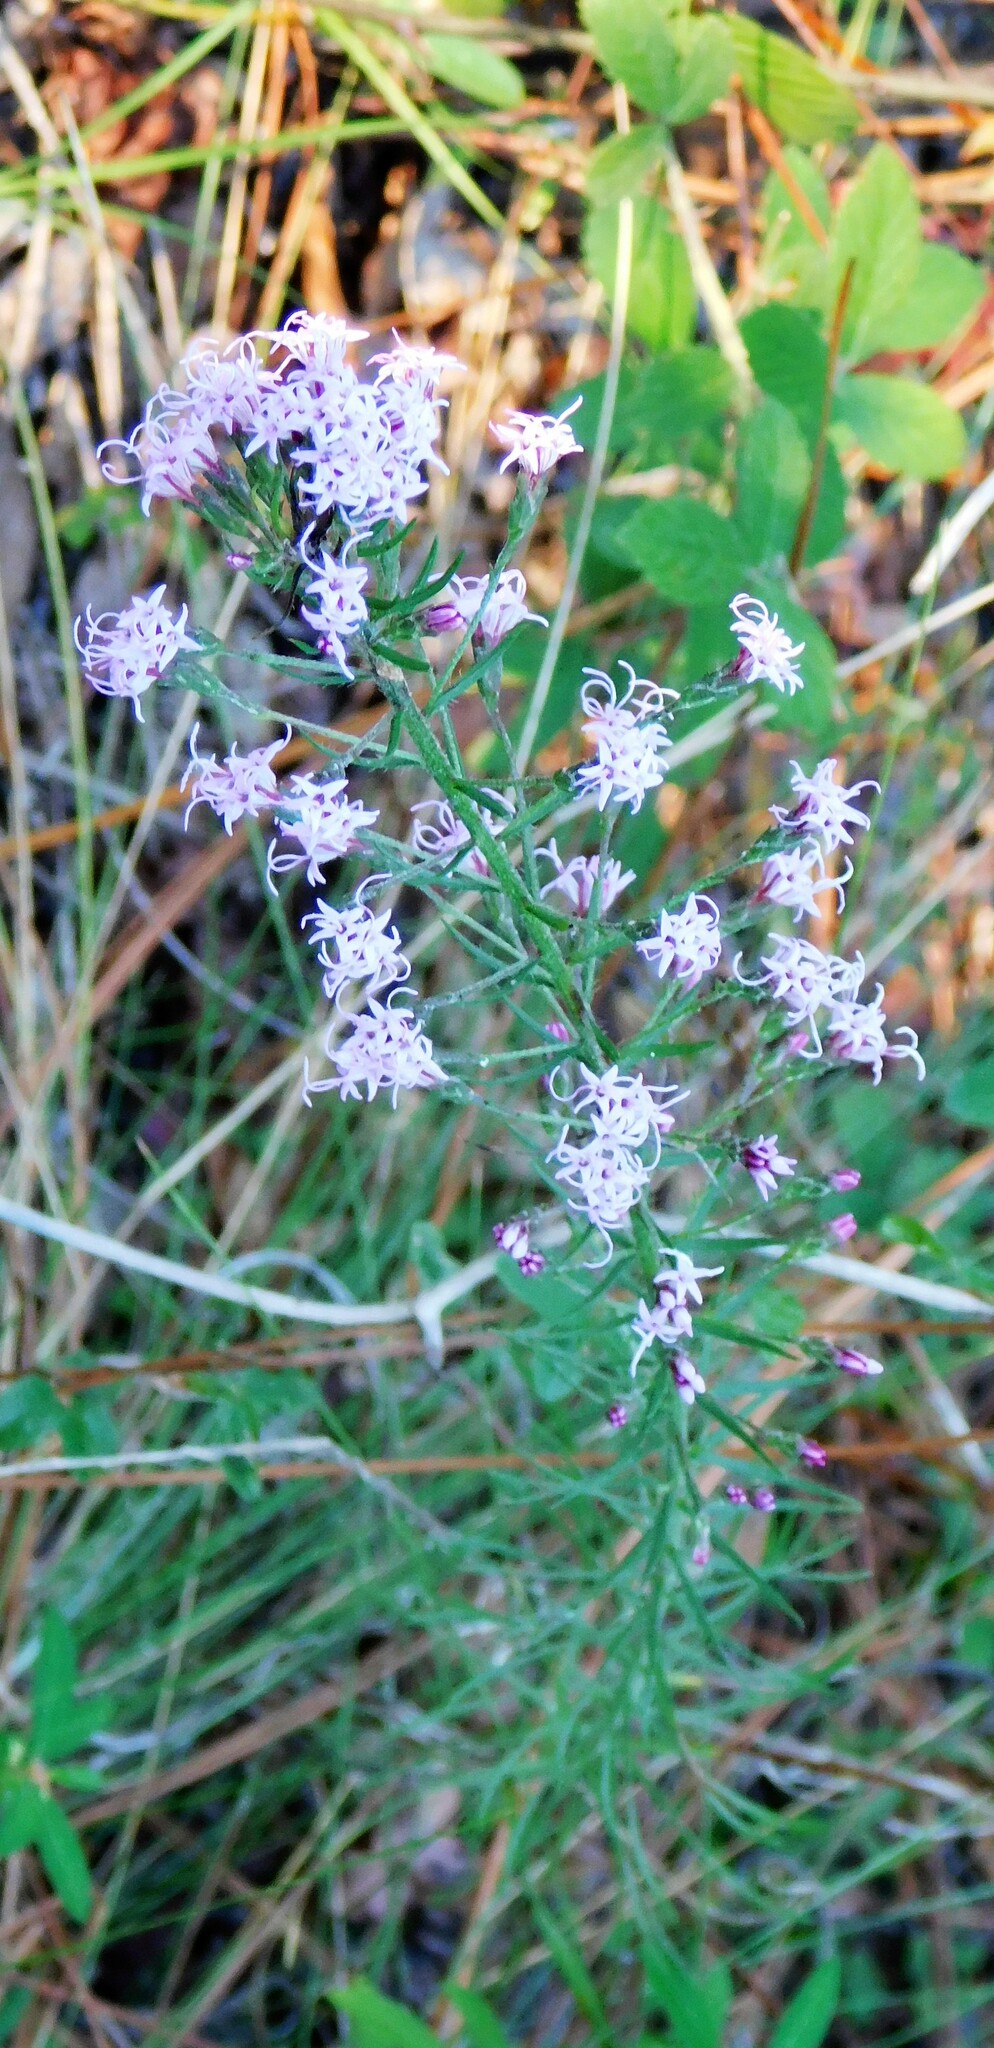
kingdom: Plantae
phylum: Tracheophyta
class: Magnoliopsida
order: Asterales
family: Asteraceae
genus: Liatris
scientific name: Liatris gracilis
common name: Slender gayfeather
